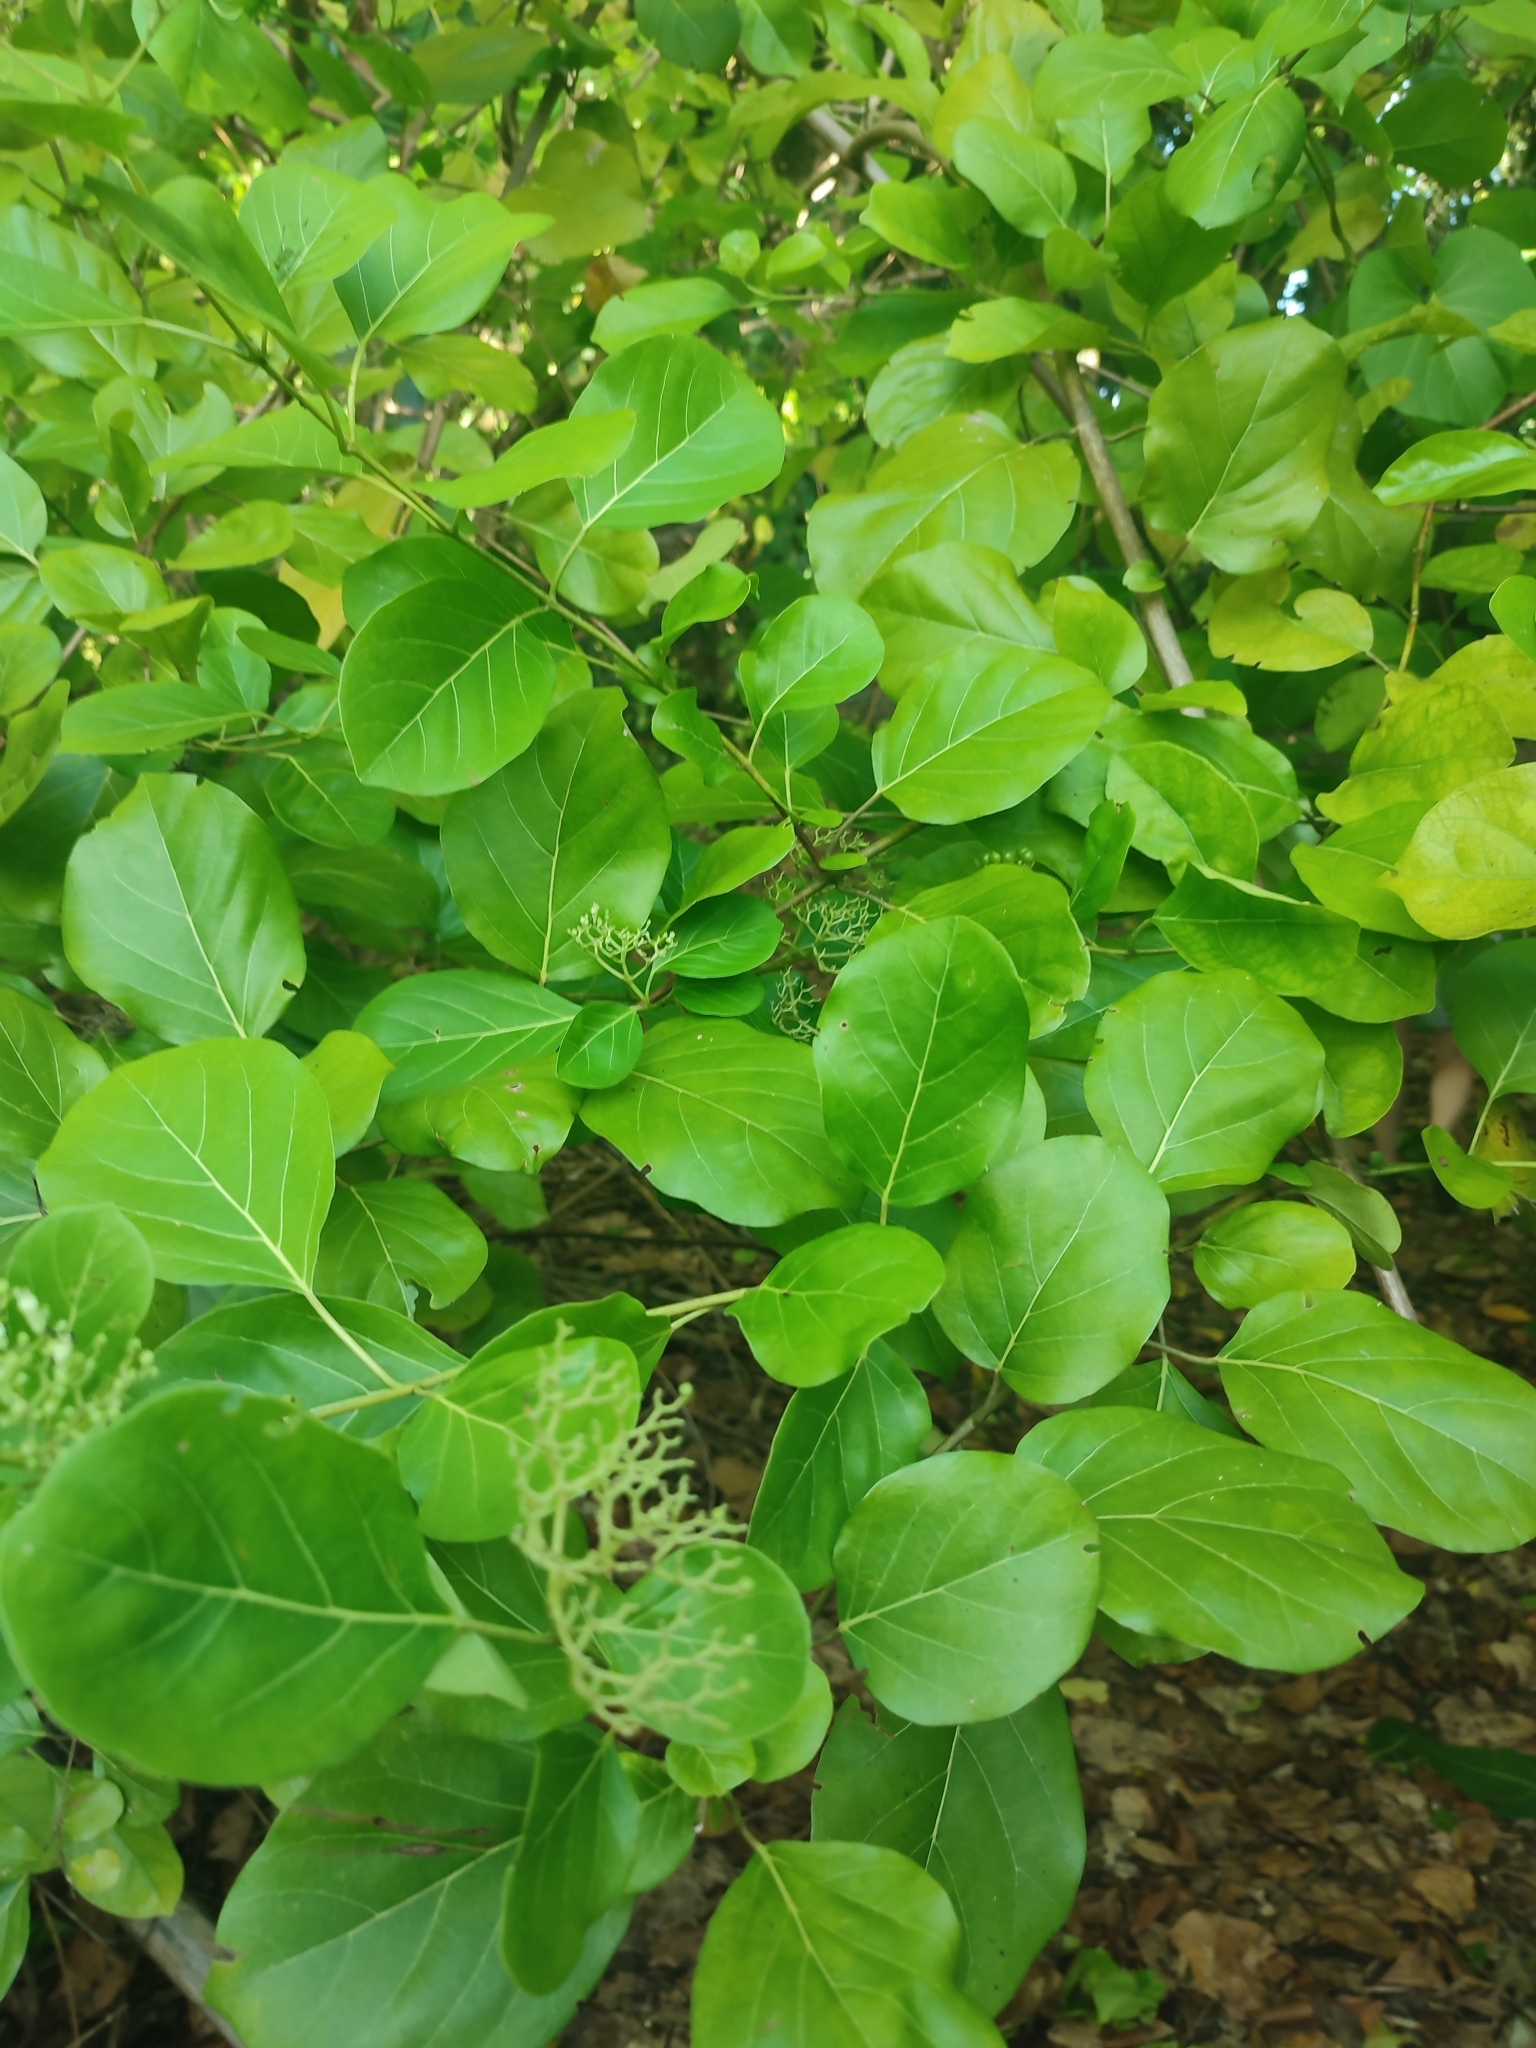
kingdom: Plantae
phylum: Tracheophyta
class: Magnoliopsida
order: Lamiales
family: Lamiaceae
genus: Premna
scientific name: Premna serratifolia
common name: Bastard guelder
